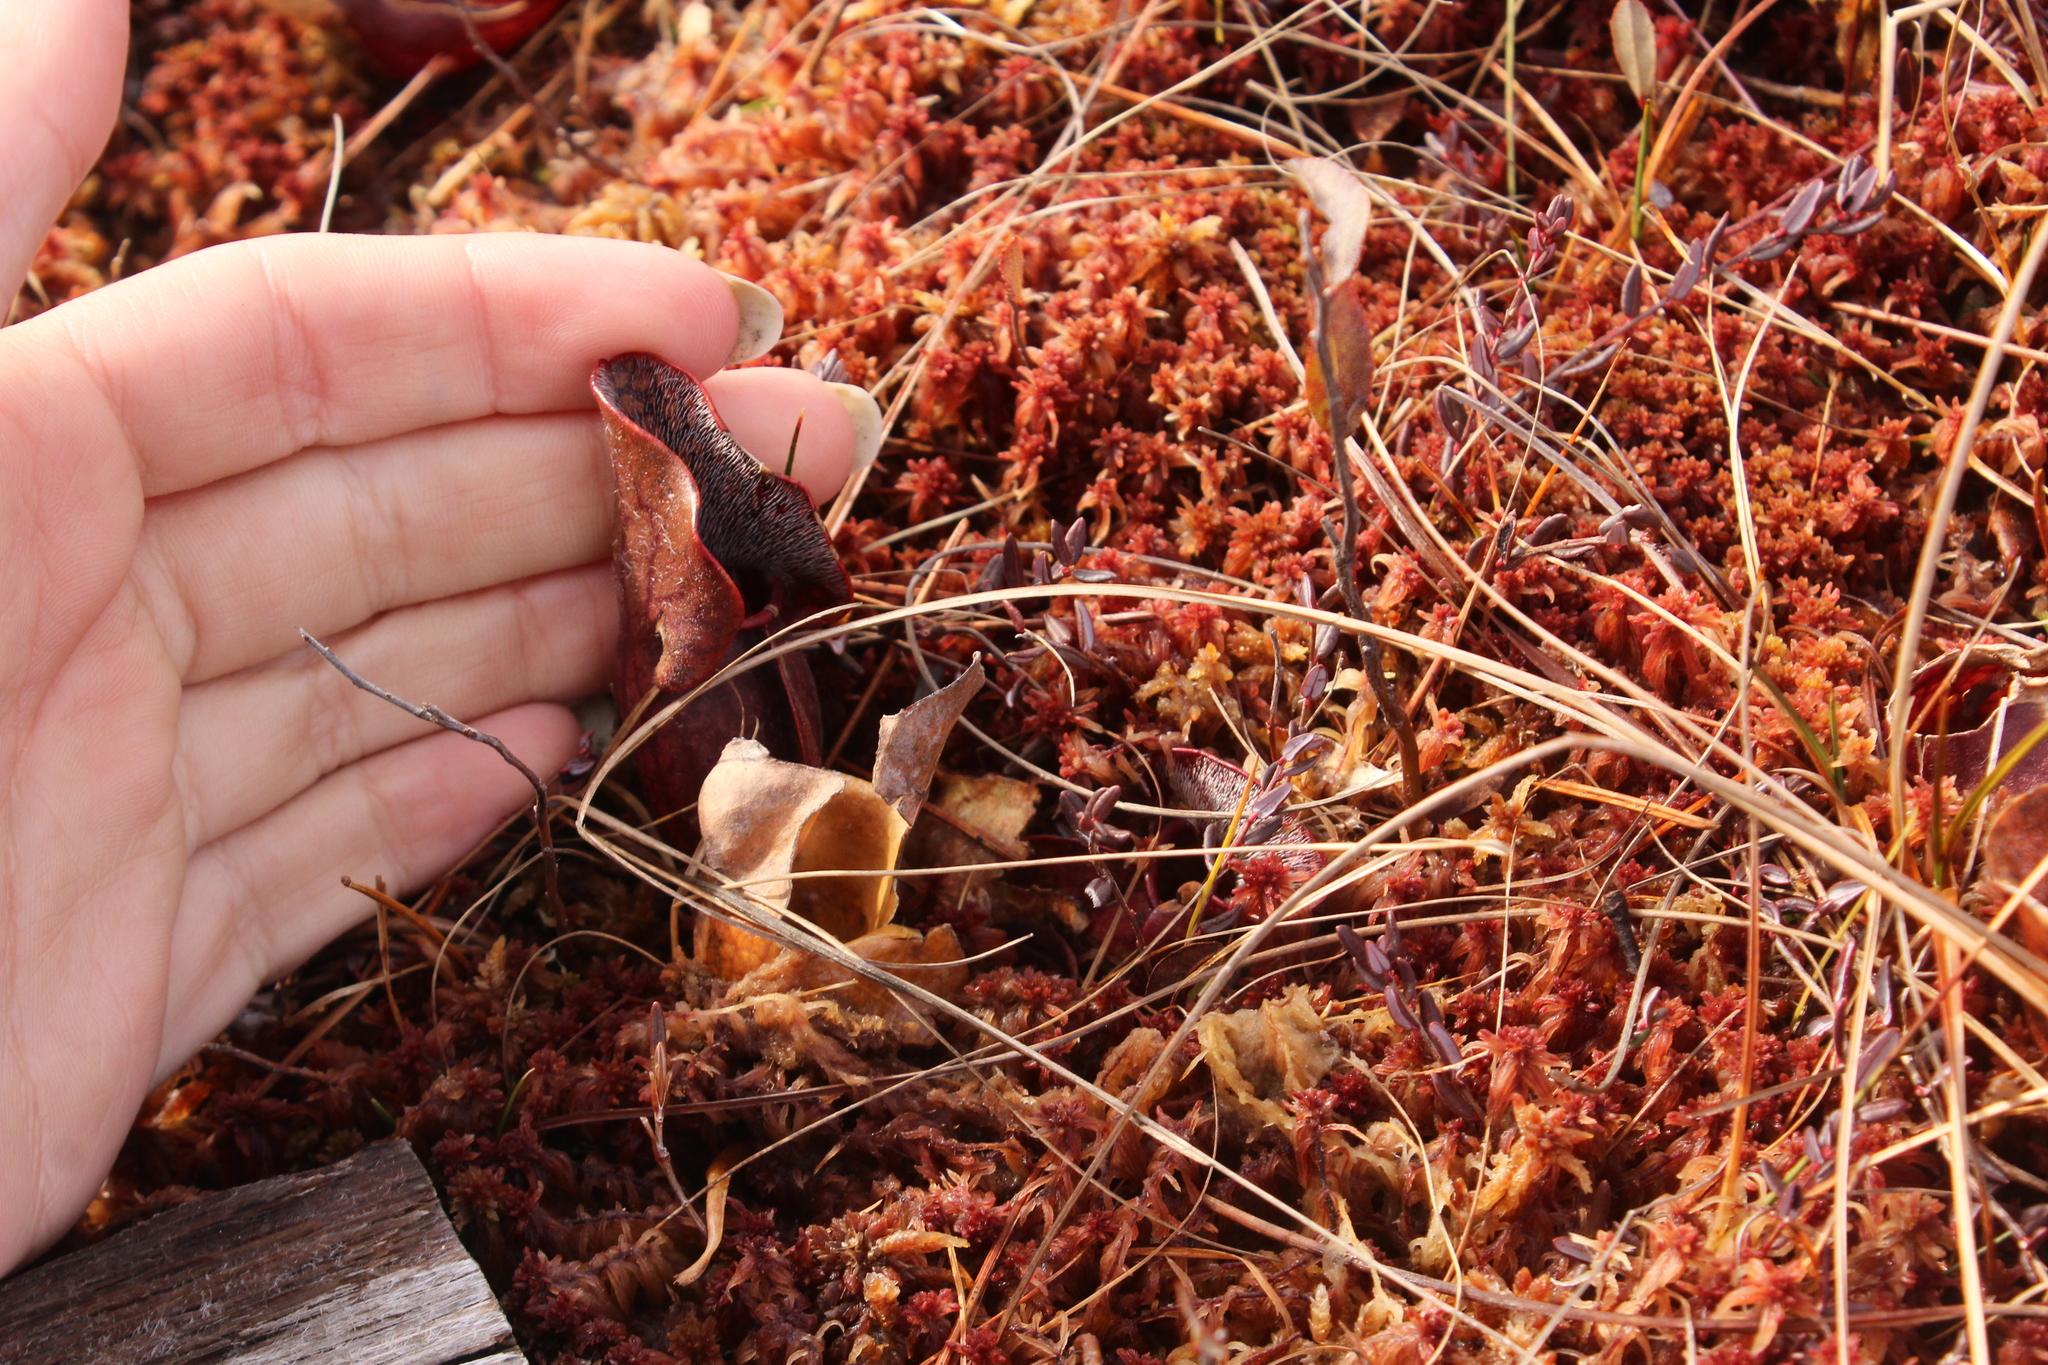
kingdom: Plantae
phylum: Tracheophyta
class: Magnoliopsida
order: Ericales
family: Sarraceniaceae
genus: Sarracenia
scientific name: Sarracenia purpurea
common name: Pitcherplant
